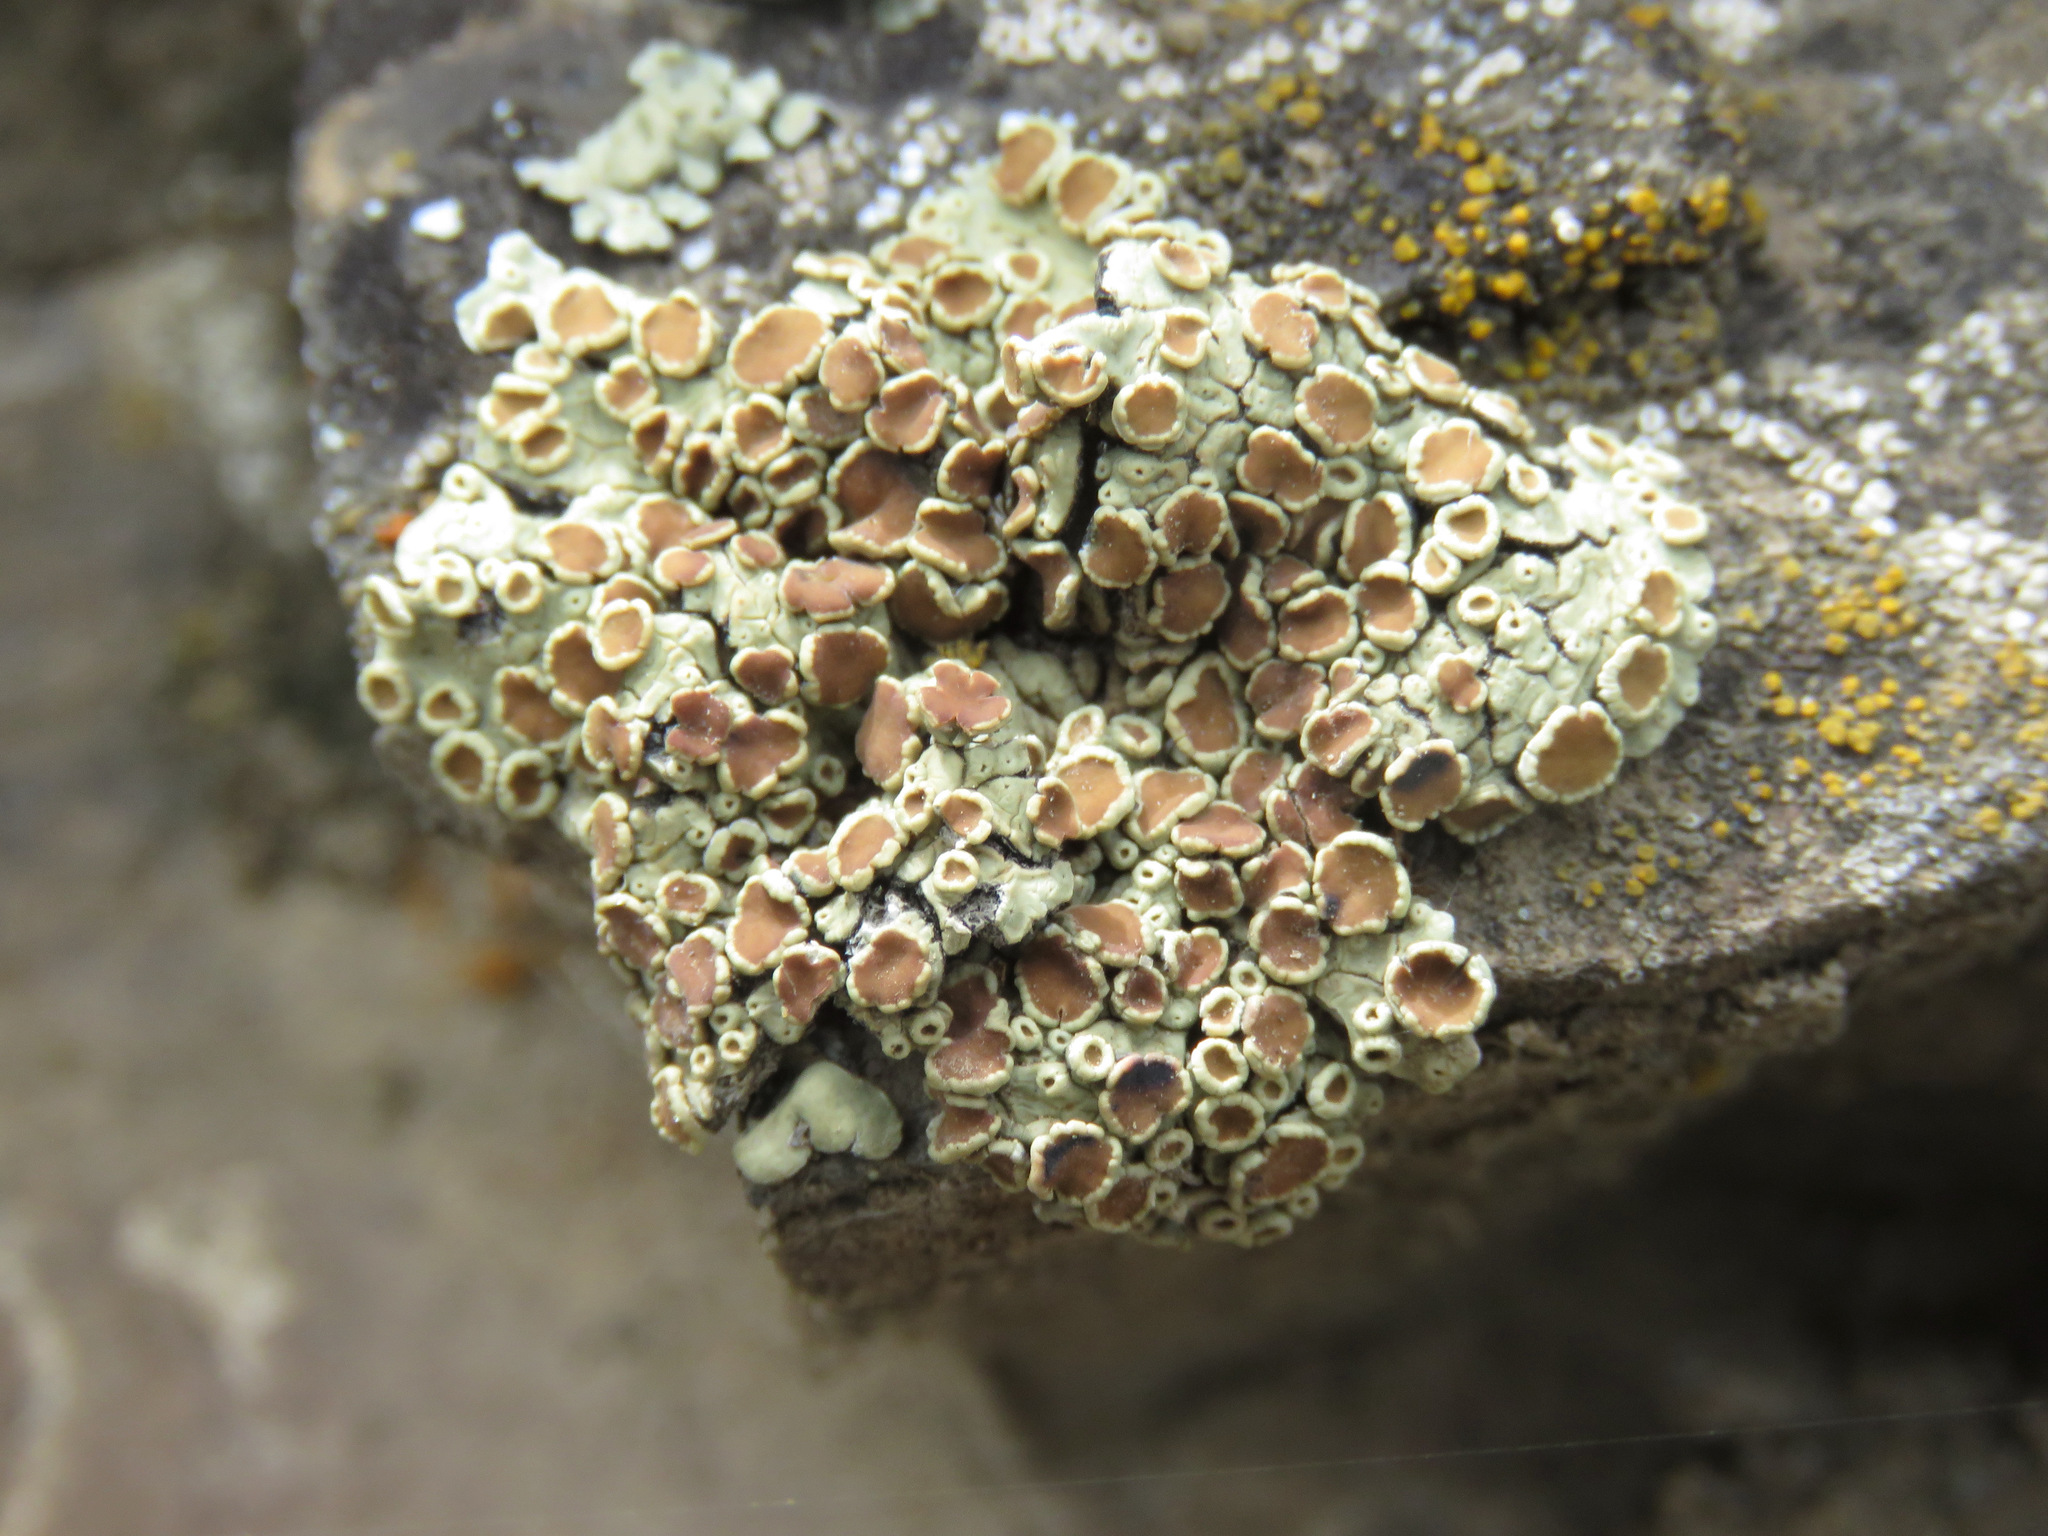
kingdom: Fungi
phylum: Ascomycota
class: Lecanoromycetes
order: Lecanorales
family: Lecanoraceae
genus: Omphalodina
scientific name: Omphalodina chrysoleuca
